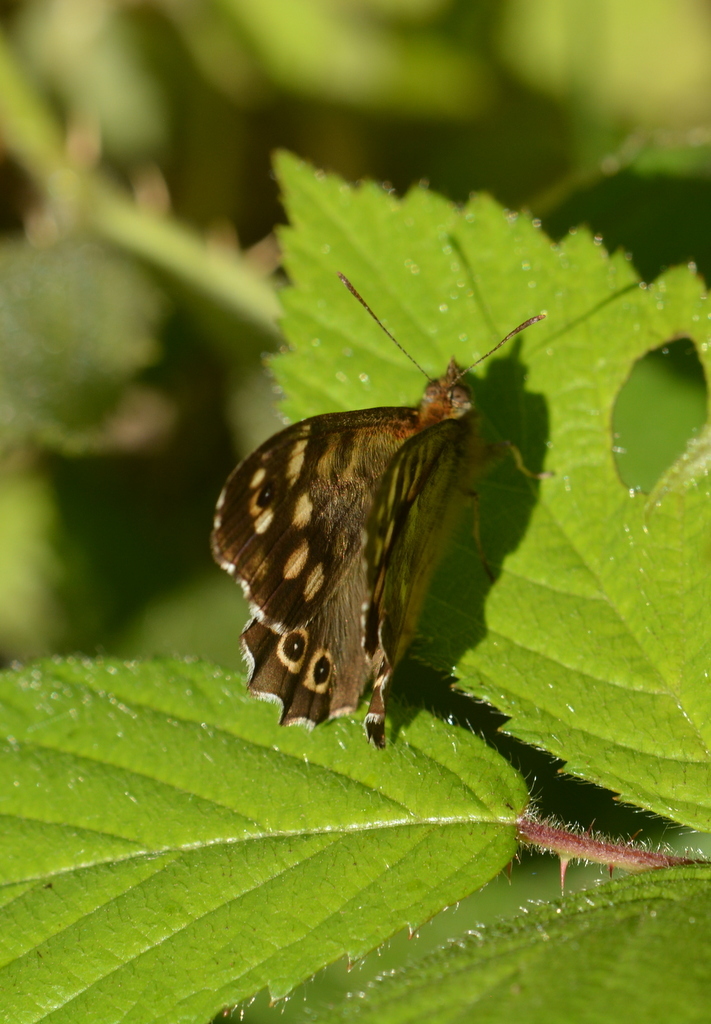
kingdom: Animalia
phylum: Arthropoda
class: Insecta
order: Lepidoptera
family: Nymphalidae
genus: Pararge
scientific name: Pararge aegeria
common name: Speckled wood
